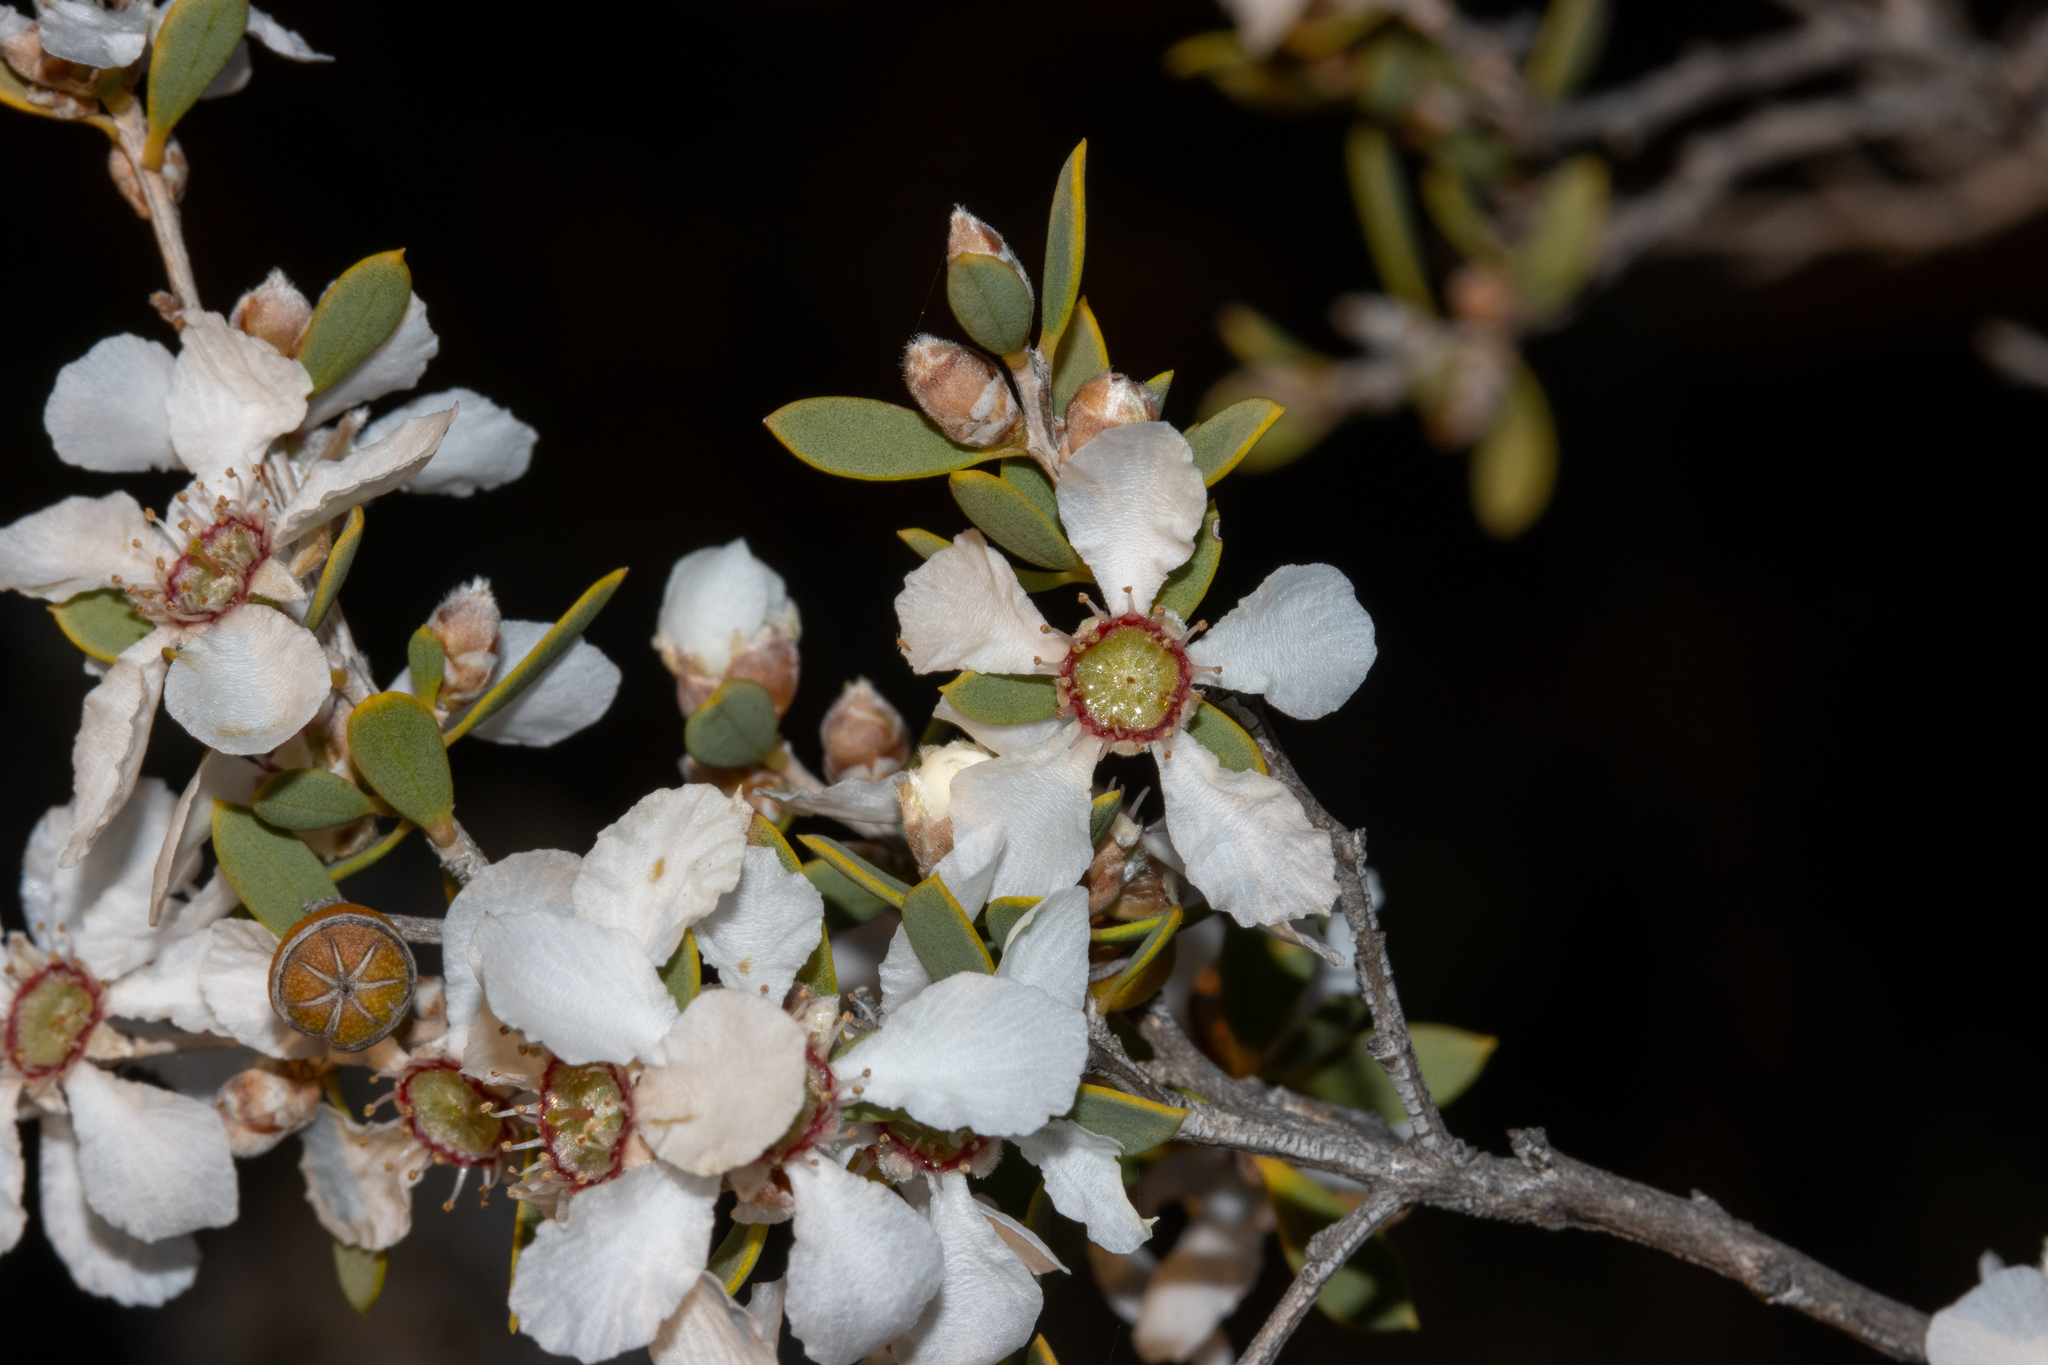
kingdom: Plantae
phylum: Tracheophyta
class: Magnoliopsida
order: Myrtales
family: Myrtaceae
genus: Leptospermum
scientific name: Leptospermum coriaceum
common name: Mallee teatree
